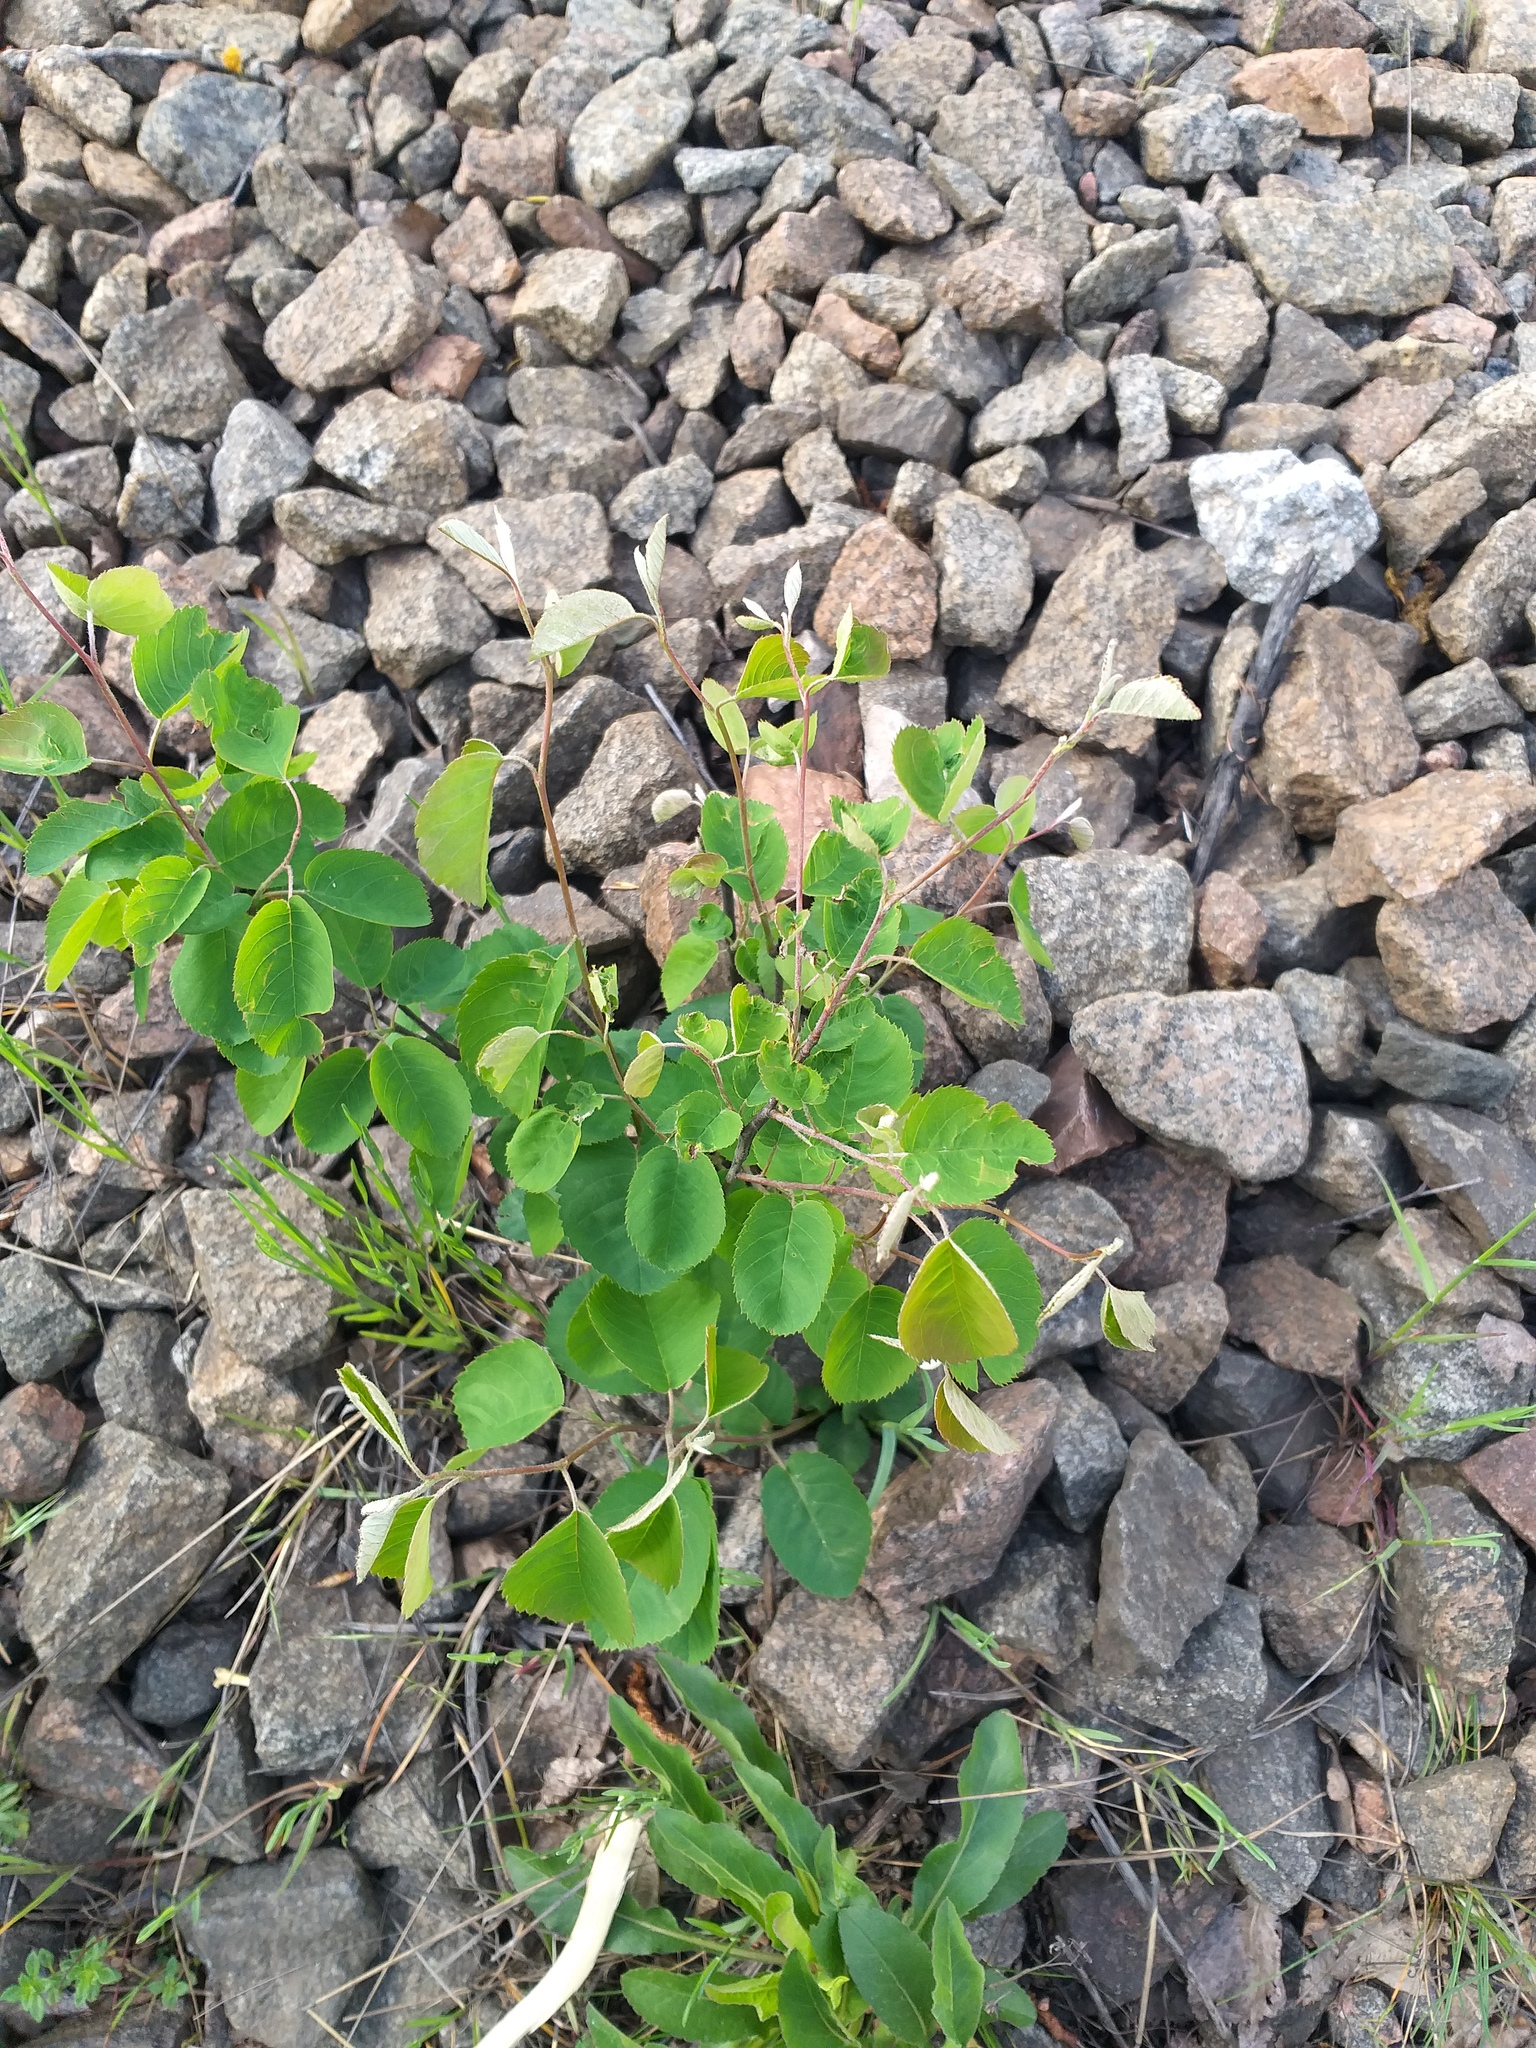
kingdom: Plantae
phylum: Tracheophyta
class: Magnoliopsida
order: Rosales
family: Rosaceae
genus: Amelanchier
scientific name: Amelanchier
